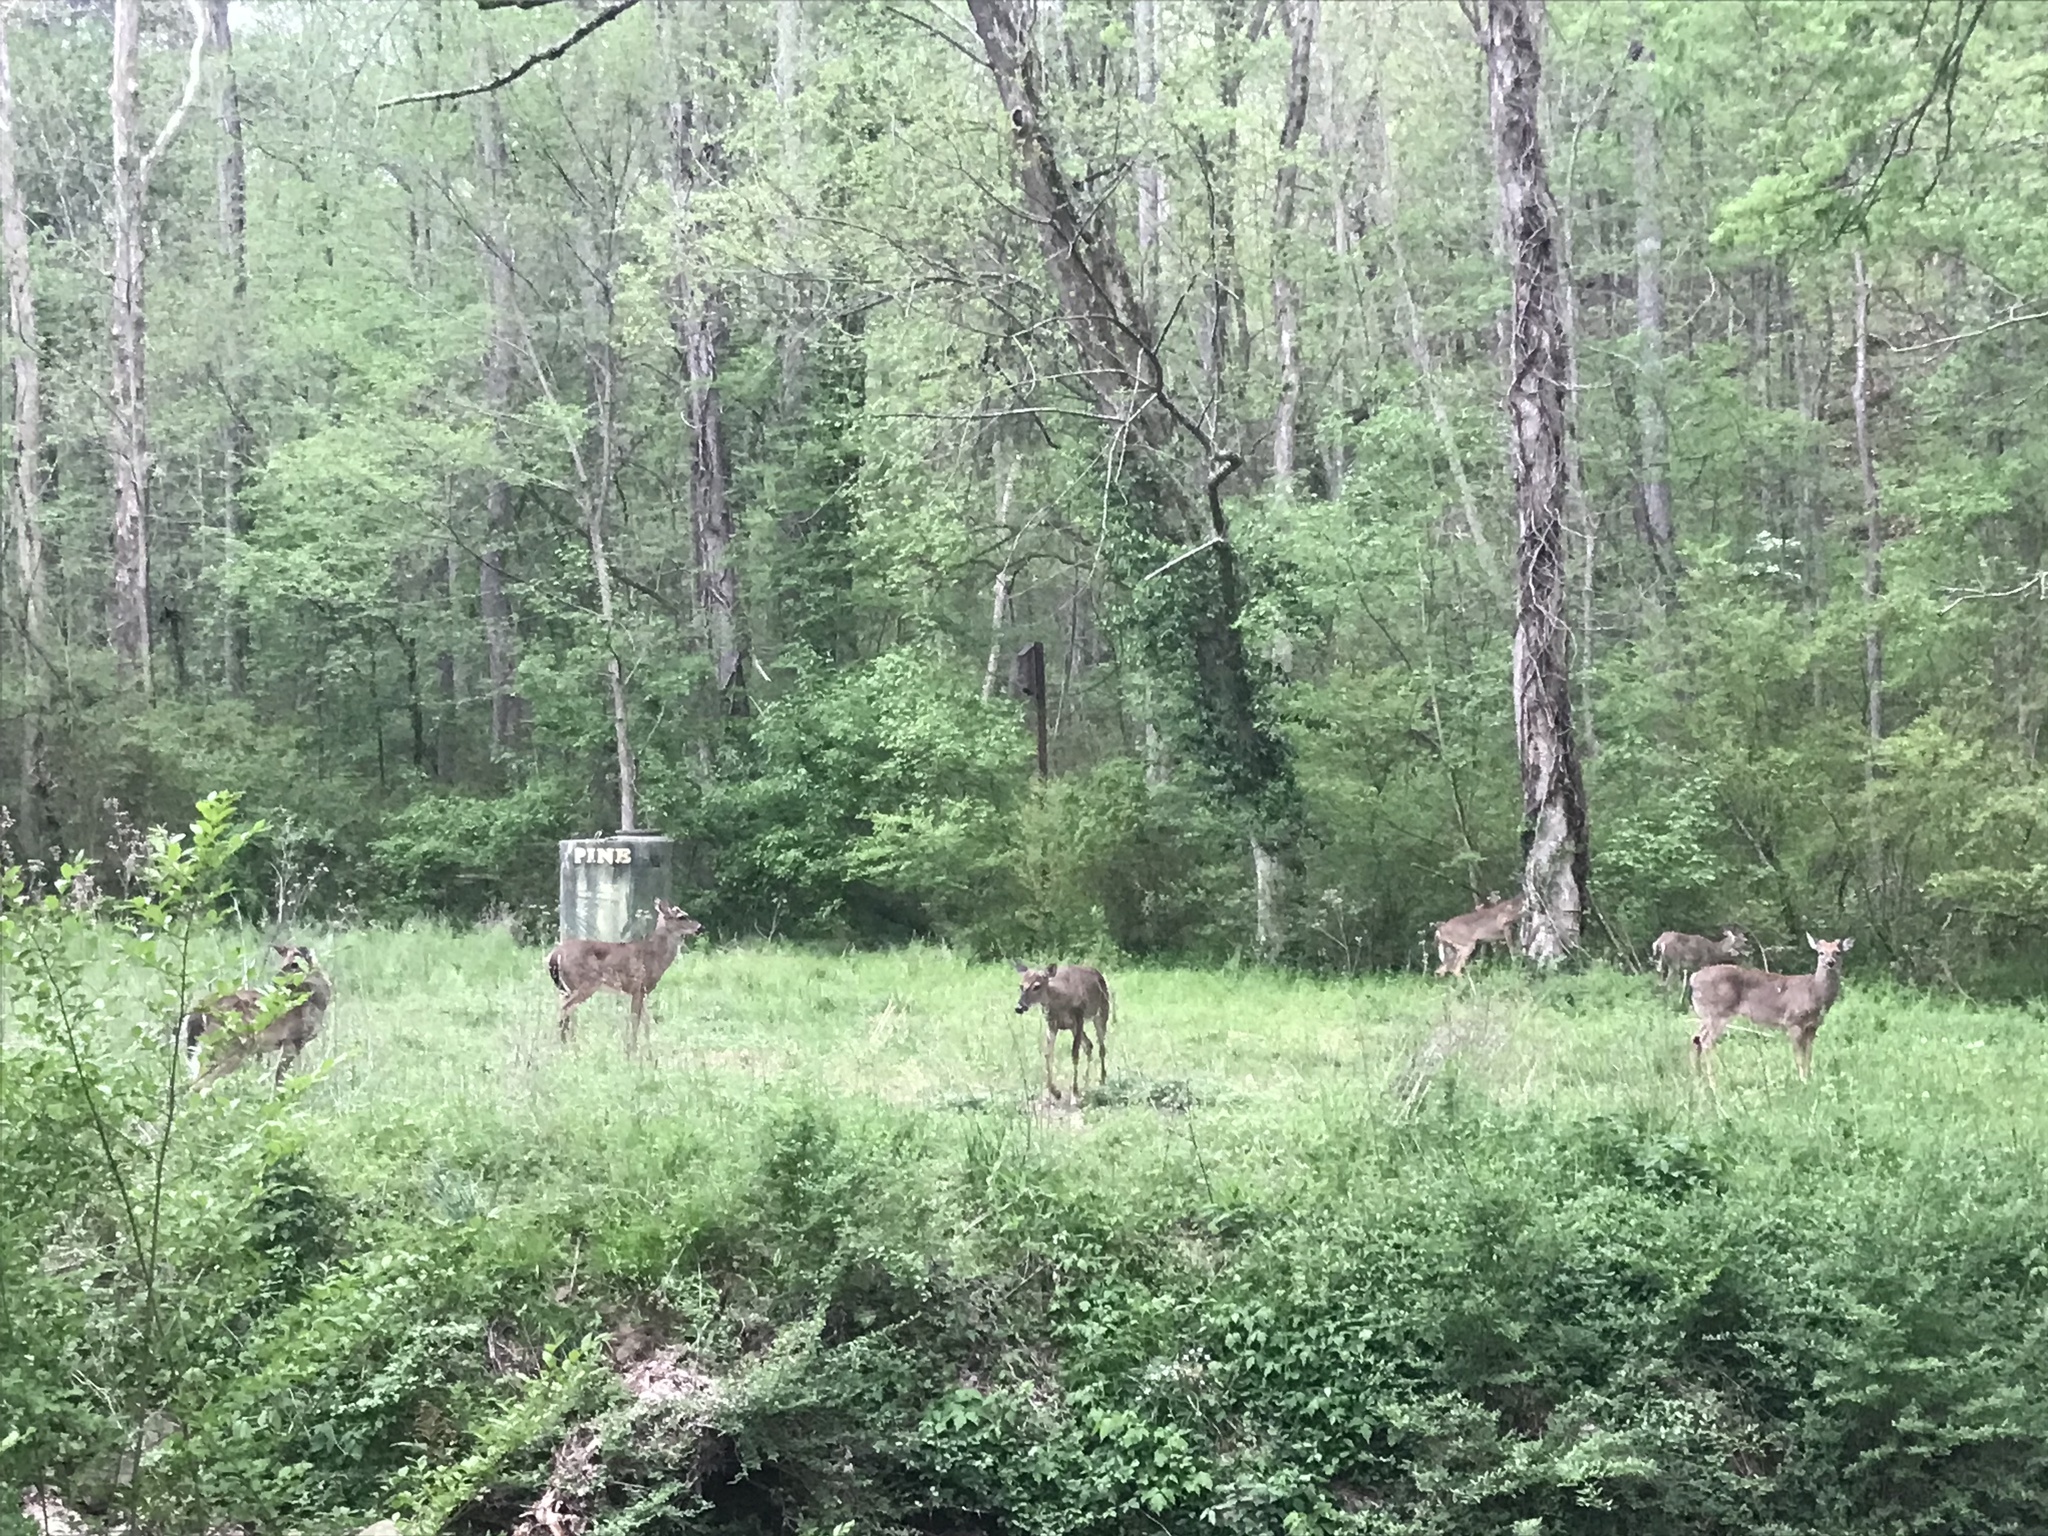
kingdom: Animalia
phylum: Chordata
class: Mammalia
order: Artiodactyla
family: Cervidae
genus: Odocoileus
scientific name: Odocoileus virginianus
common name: White-tailed deer
